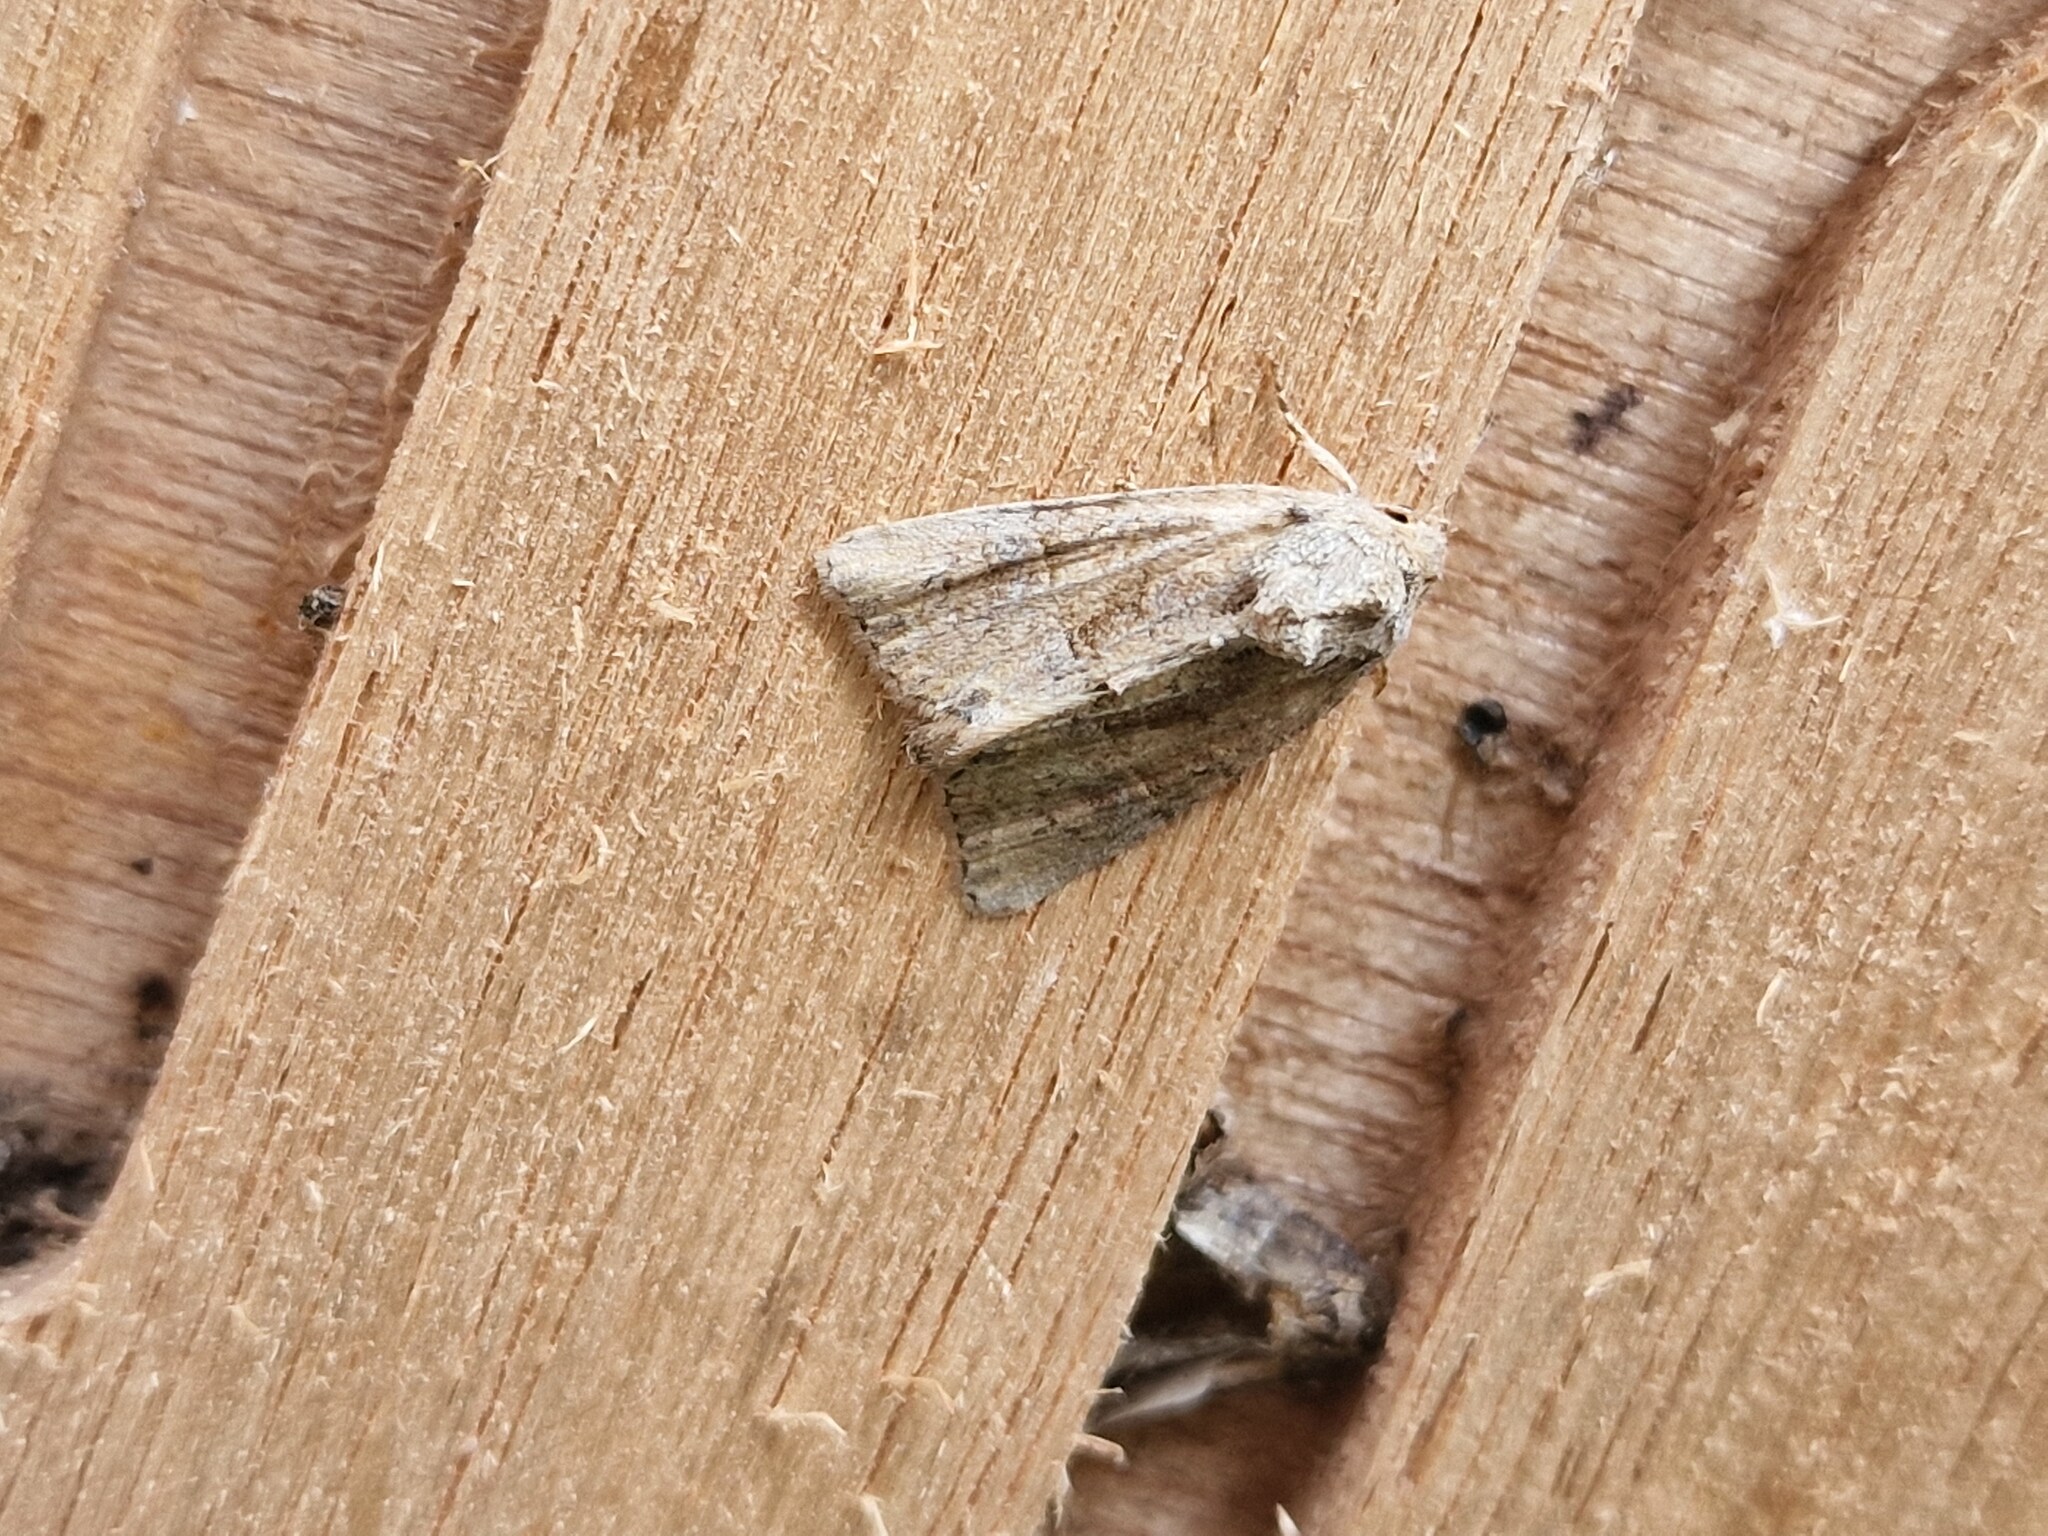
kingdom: Animalia
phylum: Arthropoda
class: Insecta
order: Lepidoptera
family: Noctuidae
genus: Mesoligia
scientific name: Mesoligia furuncula
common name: Cloaked minor
